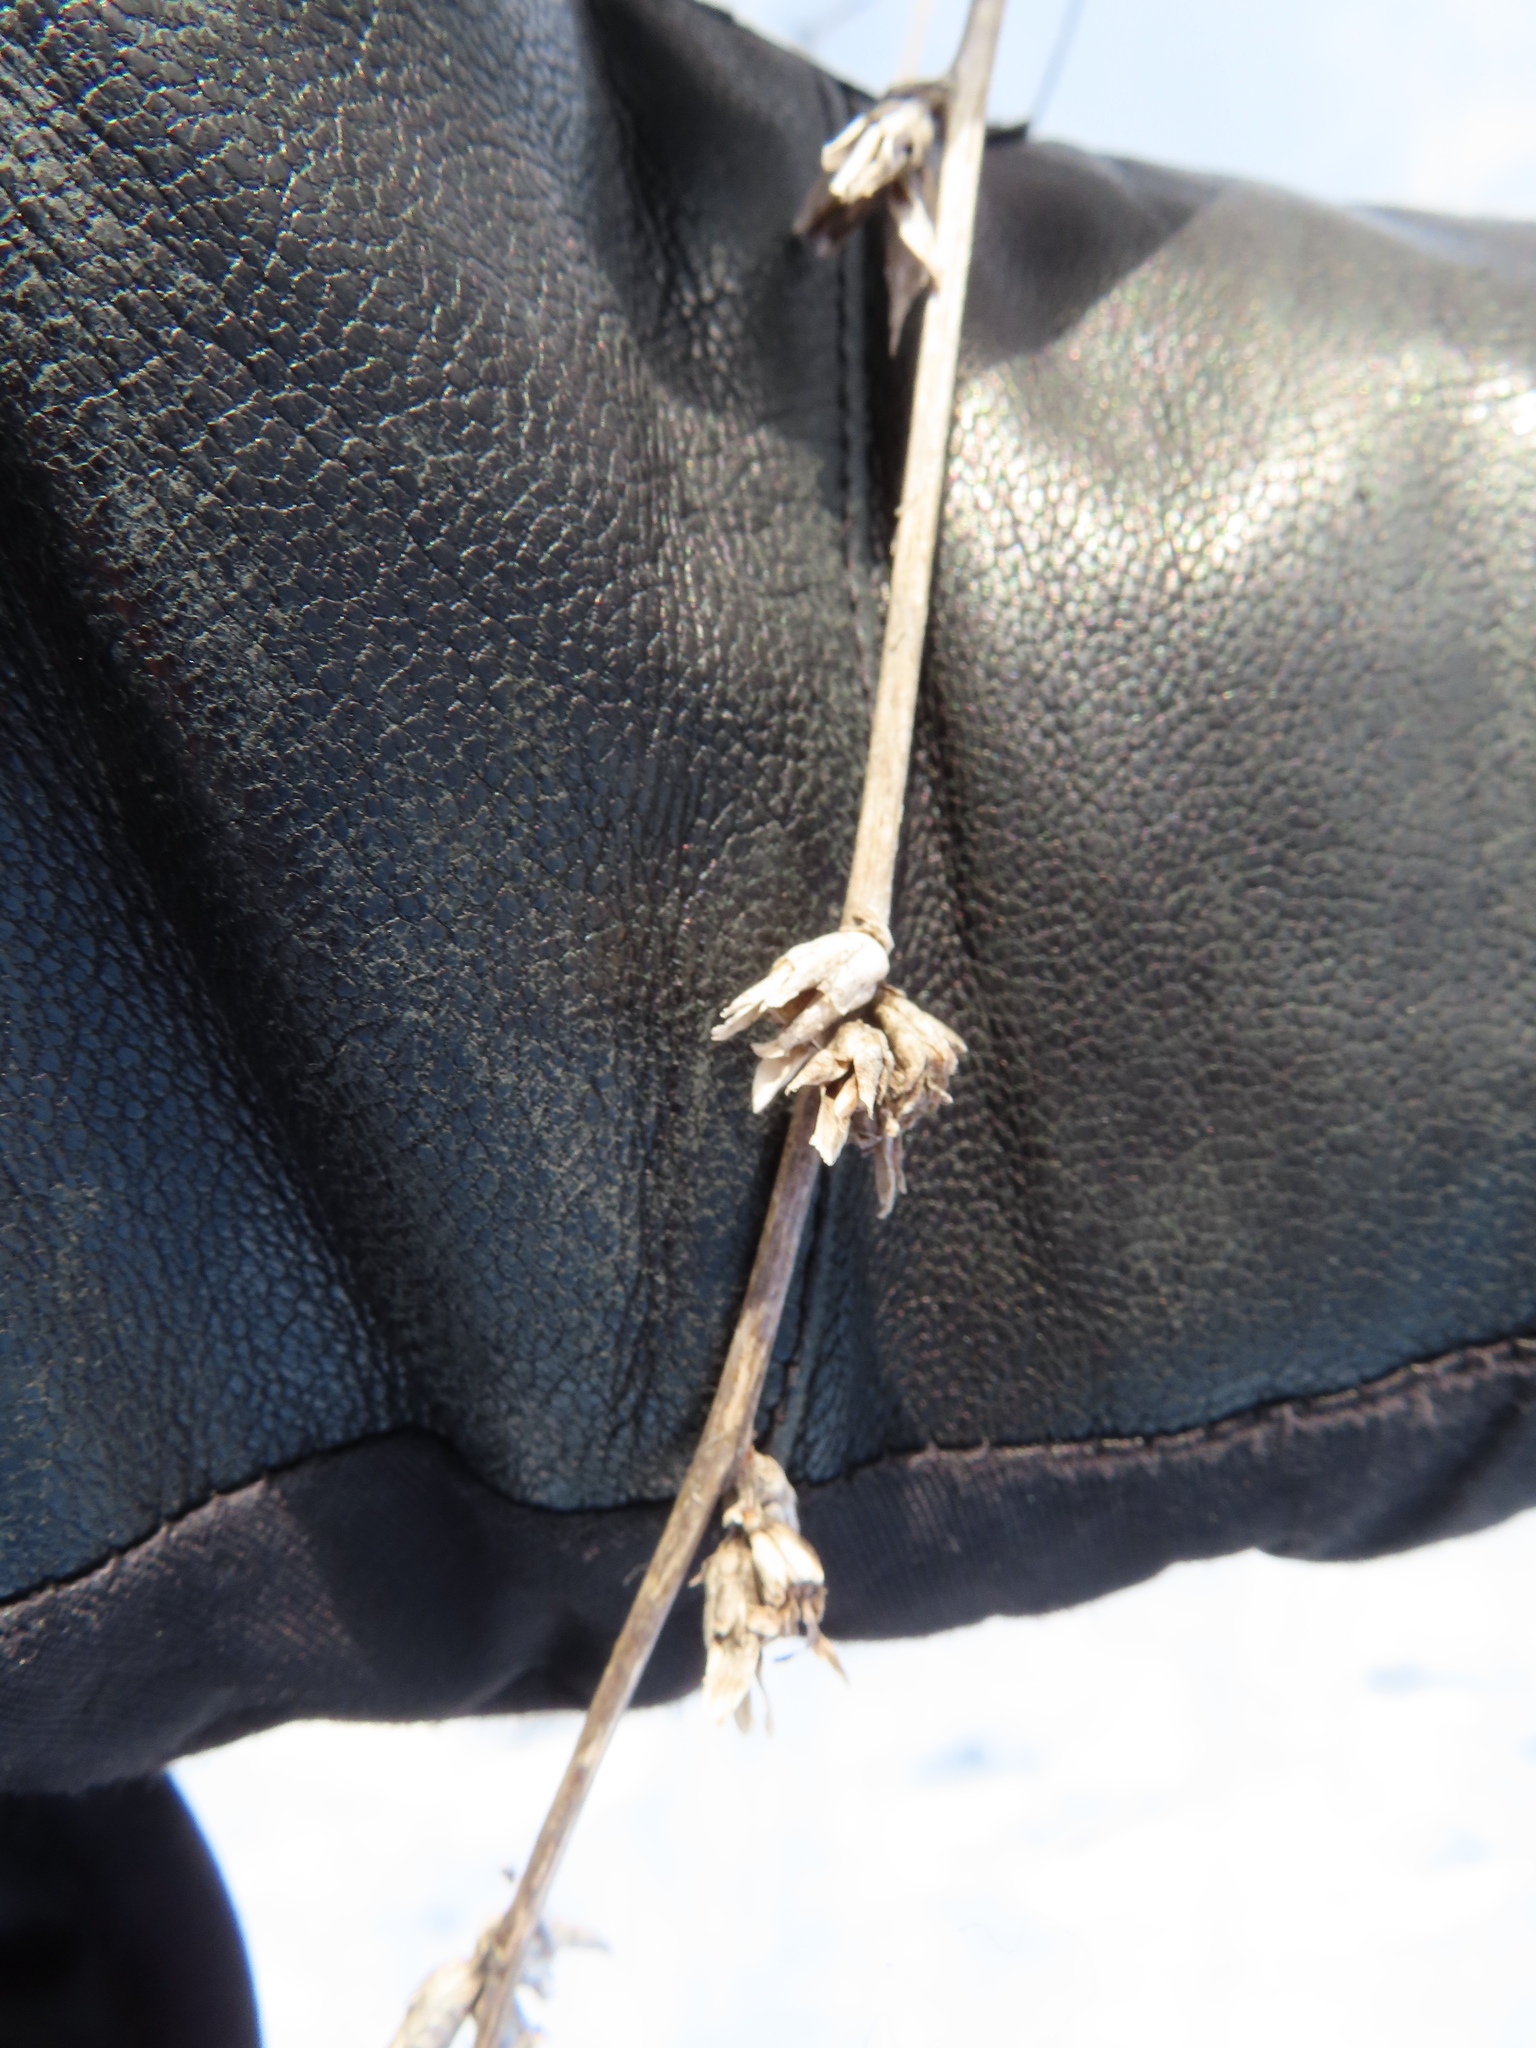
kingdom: Plantae
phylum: Tracheophyta
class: Magnoliopsida
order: Asterales
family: Asteraceae
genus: Cichorium
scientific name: Cichorium intybus
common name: Chicory
